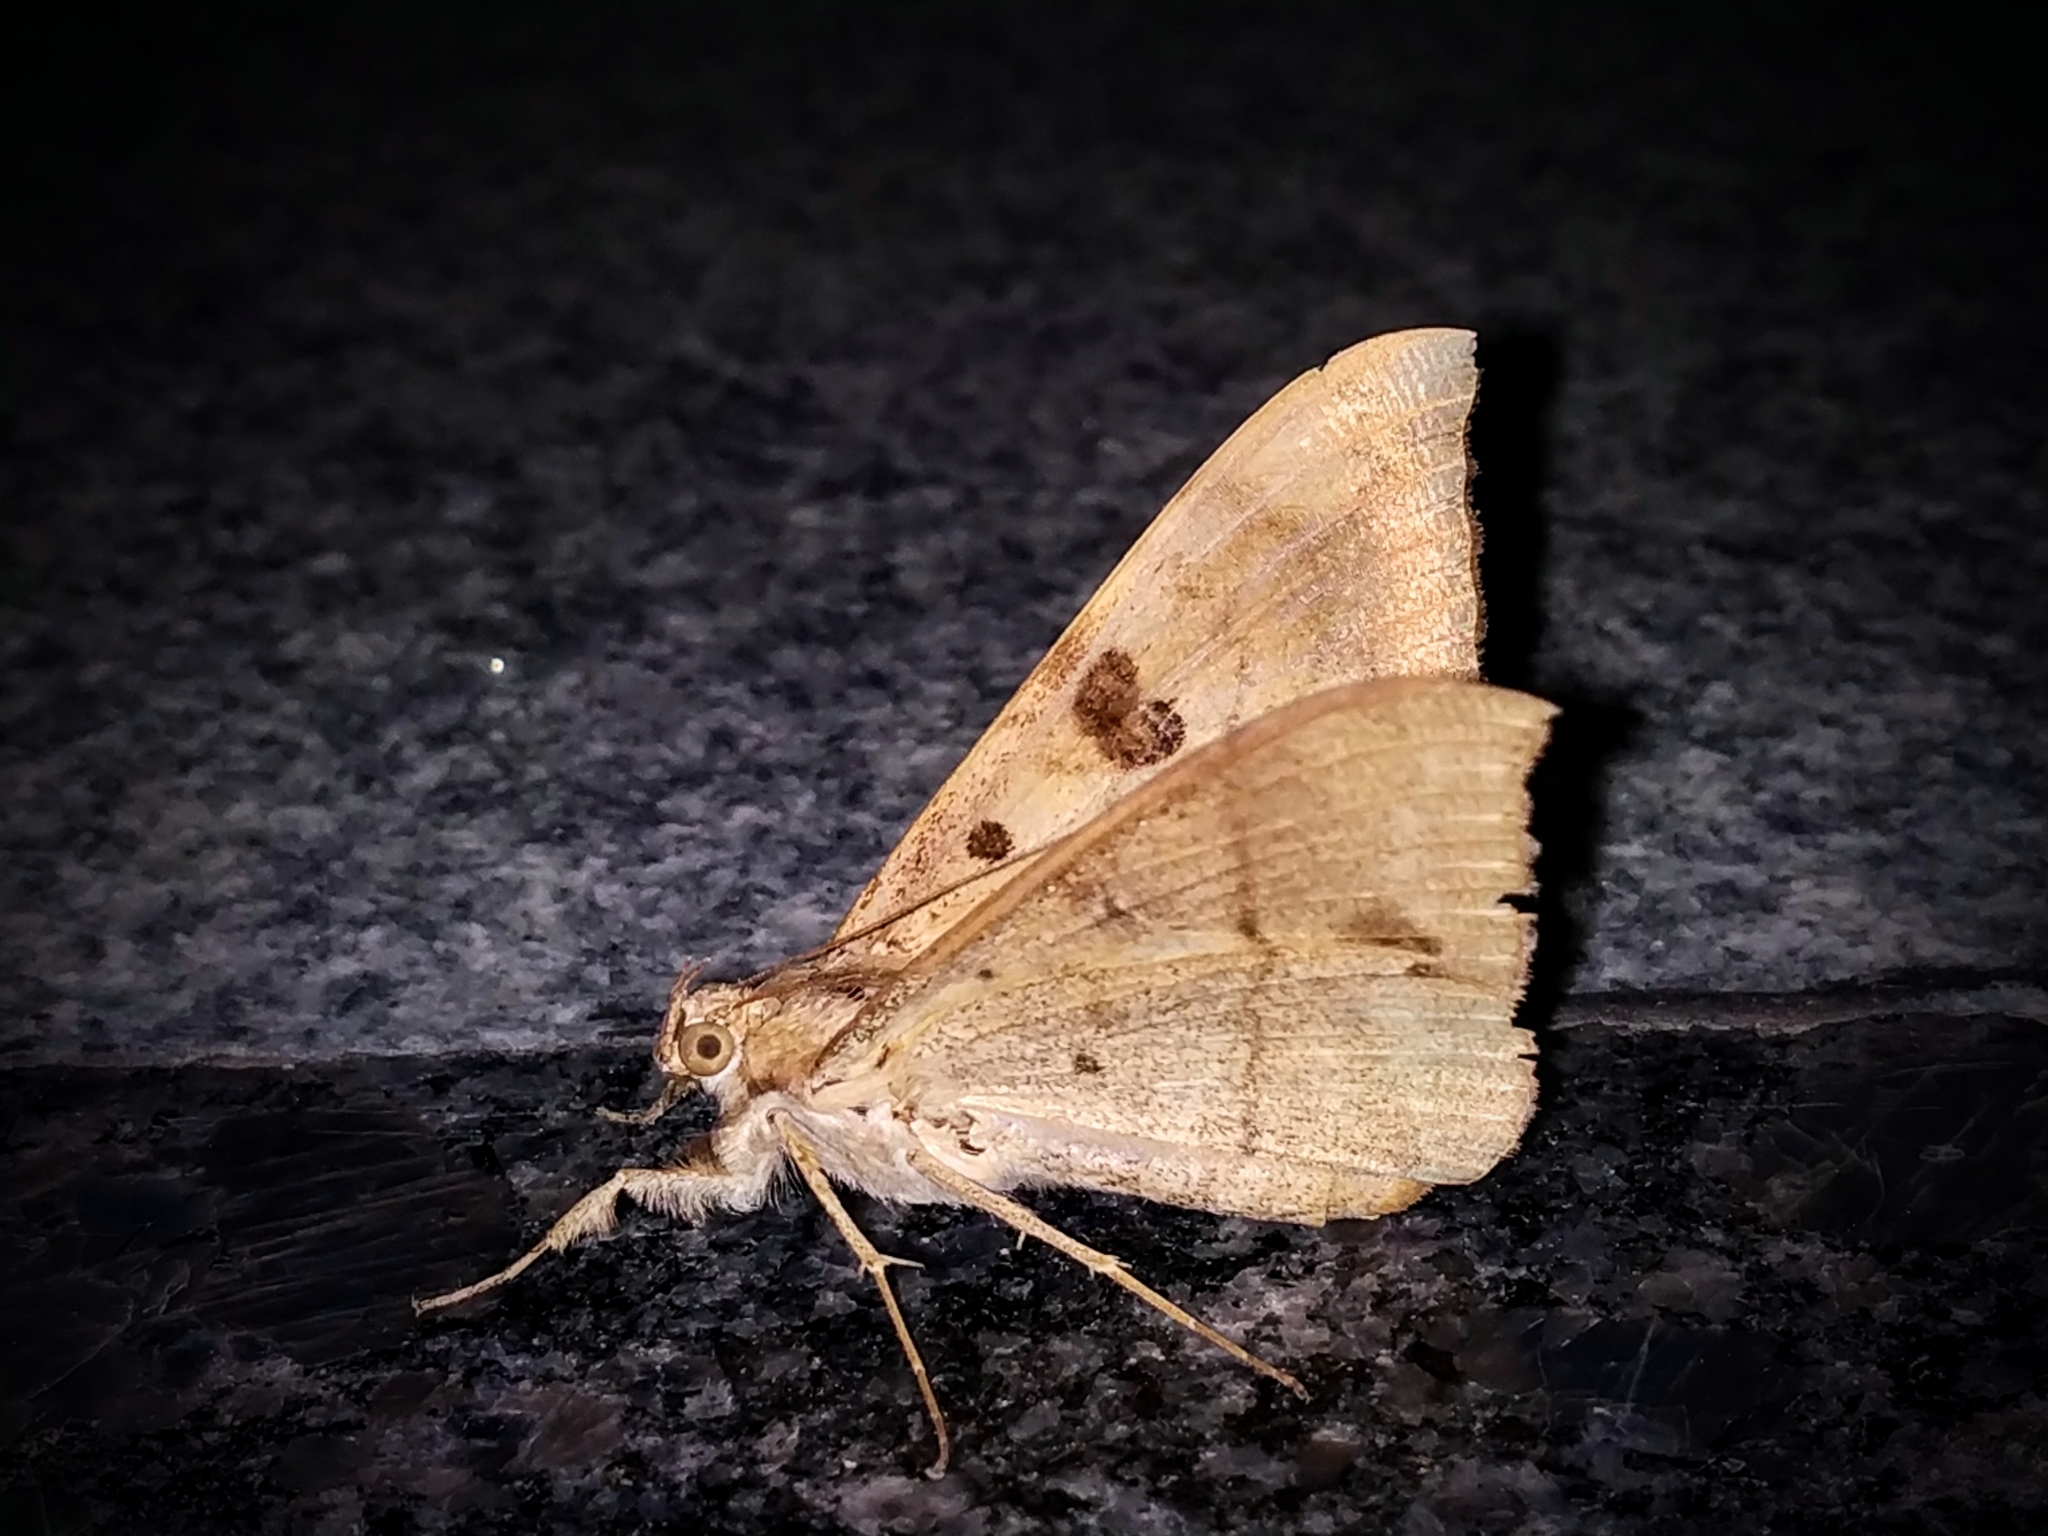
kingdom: Animalia
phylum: Arthropoda
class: Insecta
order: Lepidoptera
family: Erebidae
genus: Oxyodes
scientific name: Oxyodes scrobiculata
